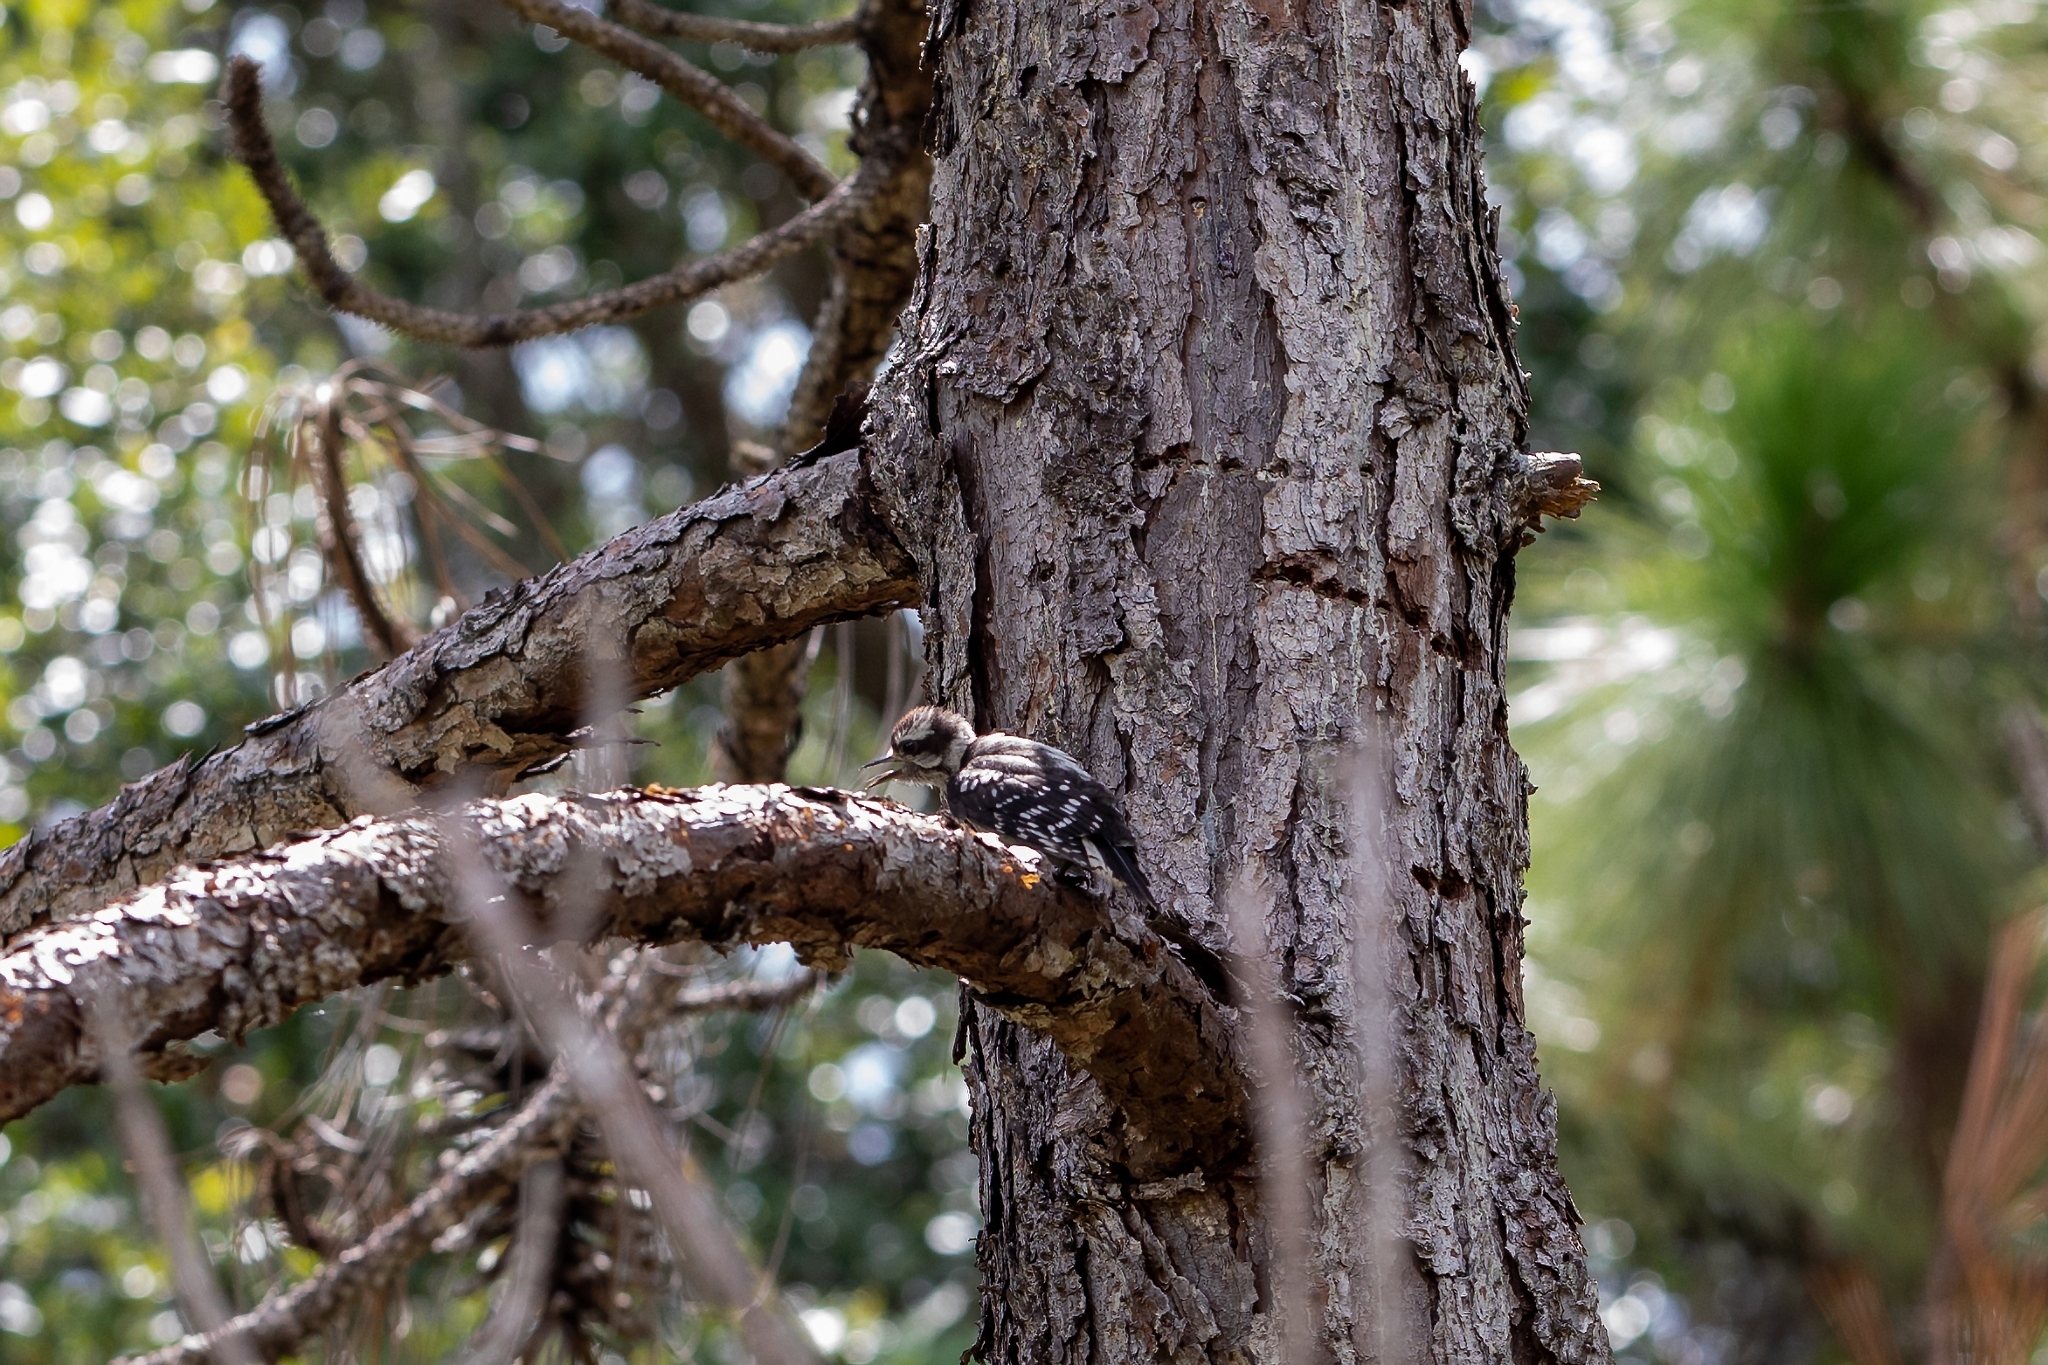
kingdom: Animalia
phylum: Chordata
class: Aves
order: Piciformes
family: Picidae
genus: Dryobates
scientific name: Dryobates pubescens
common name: Downy woodpecker
